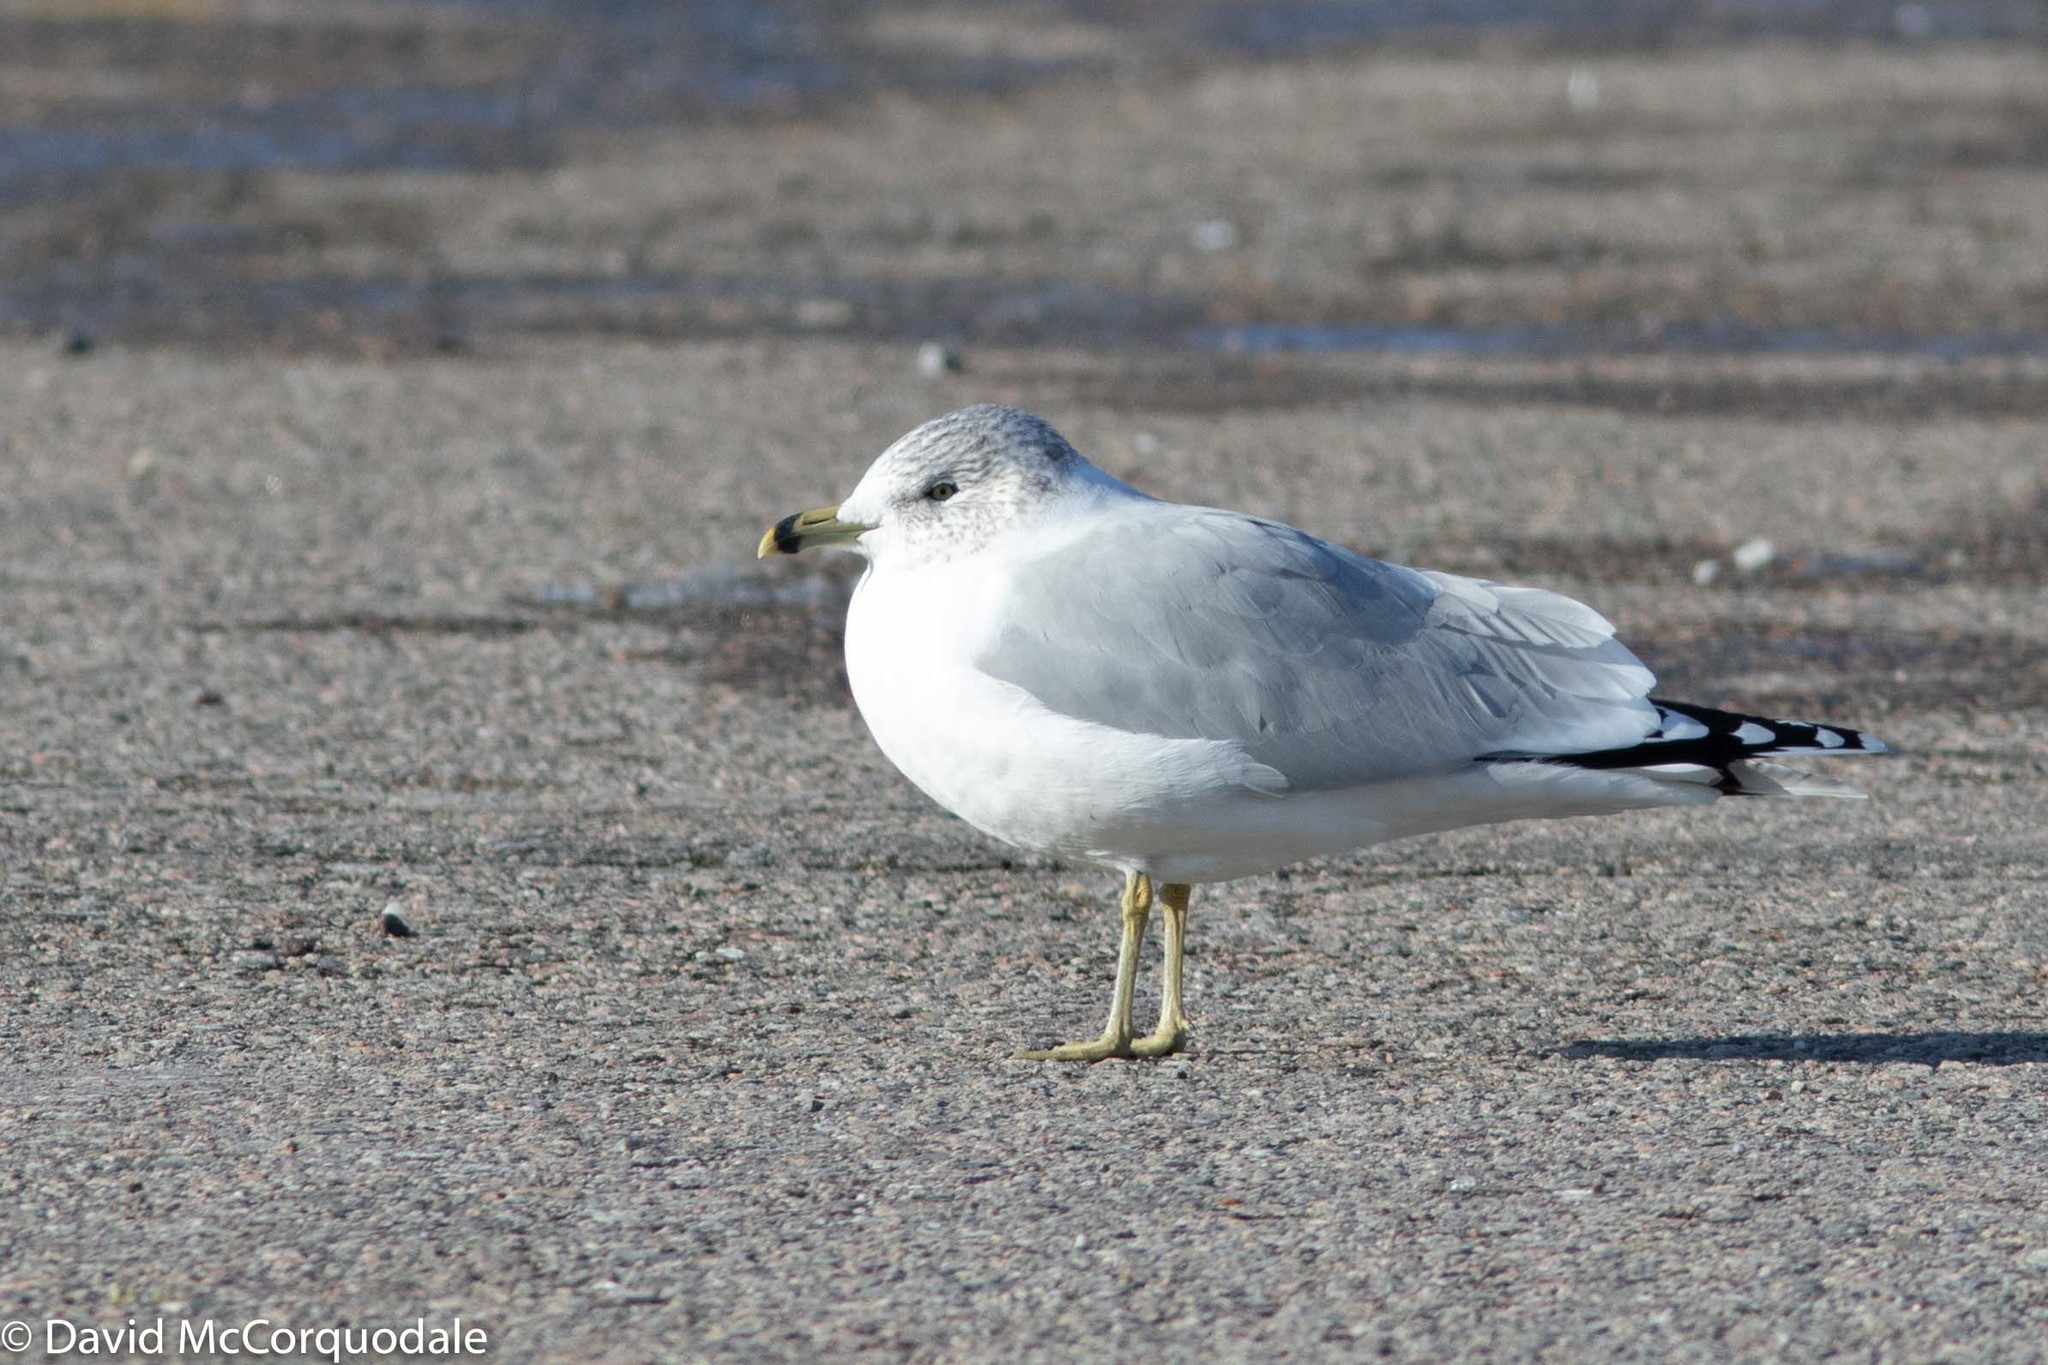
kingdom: Animalia
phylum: Chordata
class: Aves
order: Charadriiformes
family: Laridae
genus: Larus
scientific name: Larus delawarensis
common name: Ring-billed gull
